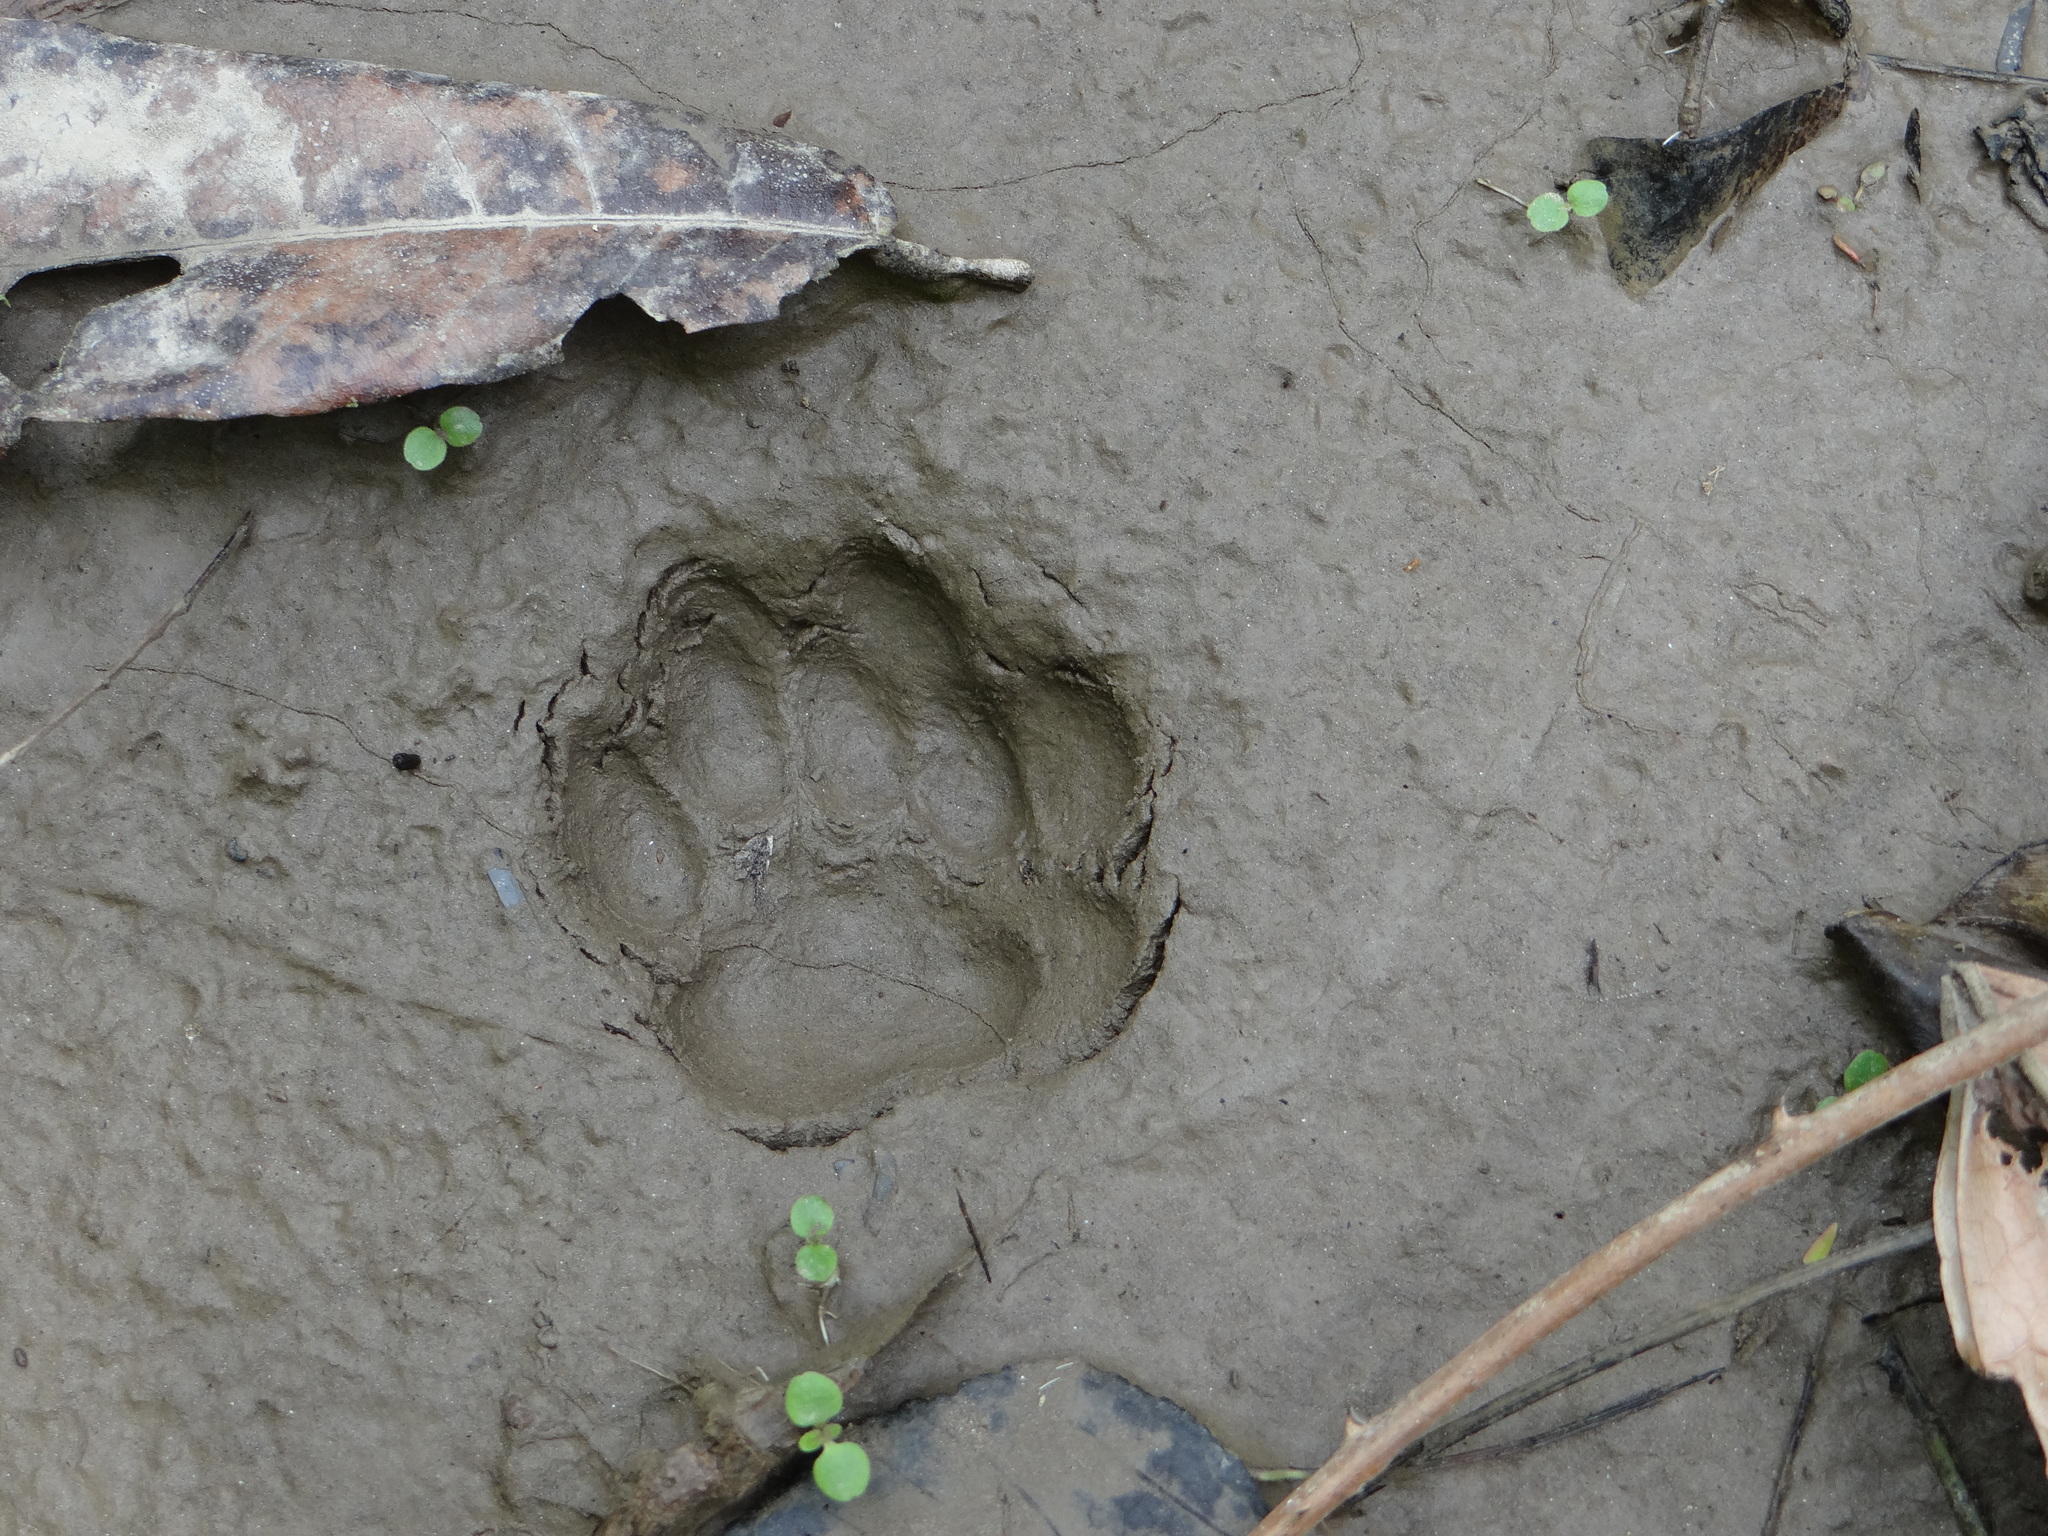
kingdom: Animalia
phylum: Chordata
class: Mammalia
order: Carnivora
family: Felidae
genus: Leopardus
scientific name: Leopardus pardalis
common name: Ocelot
